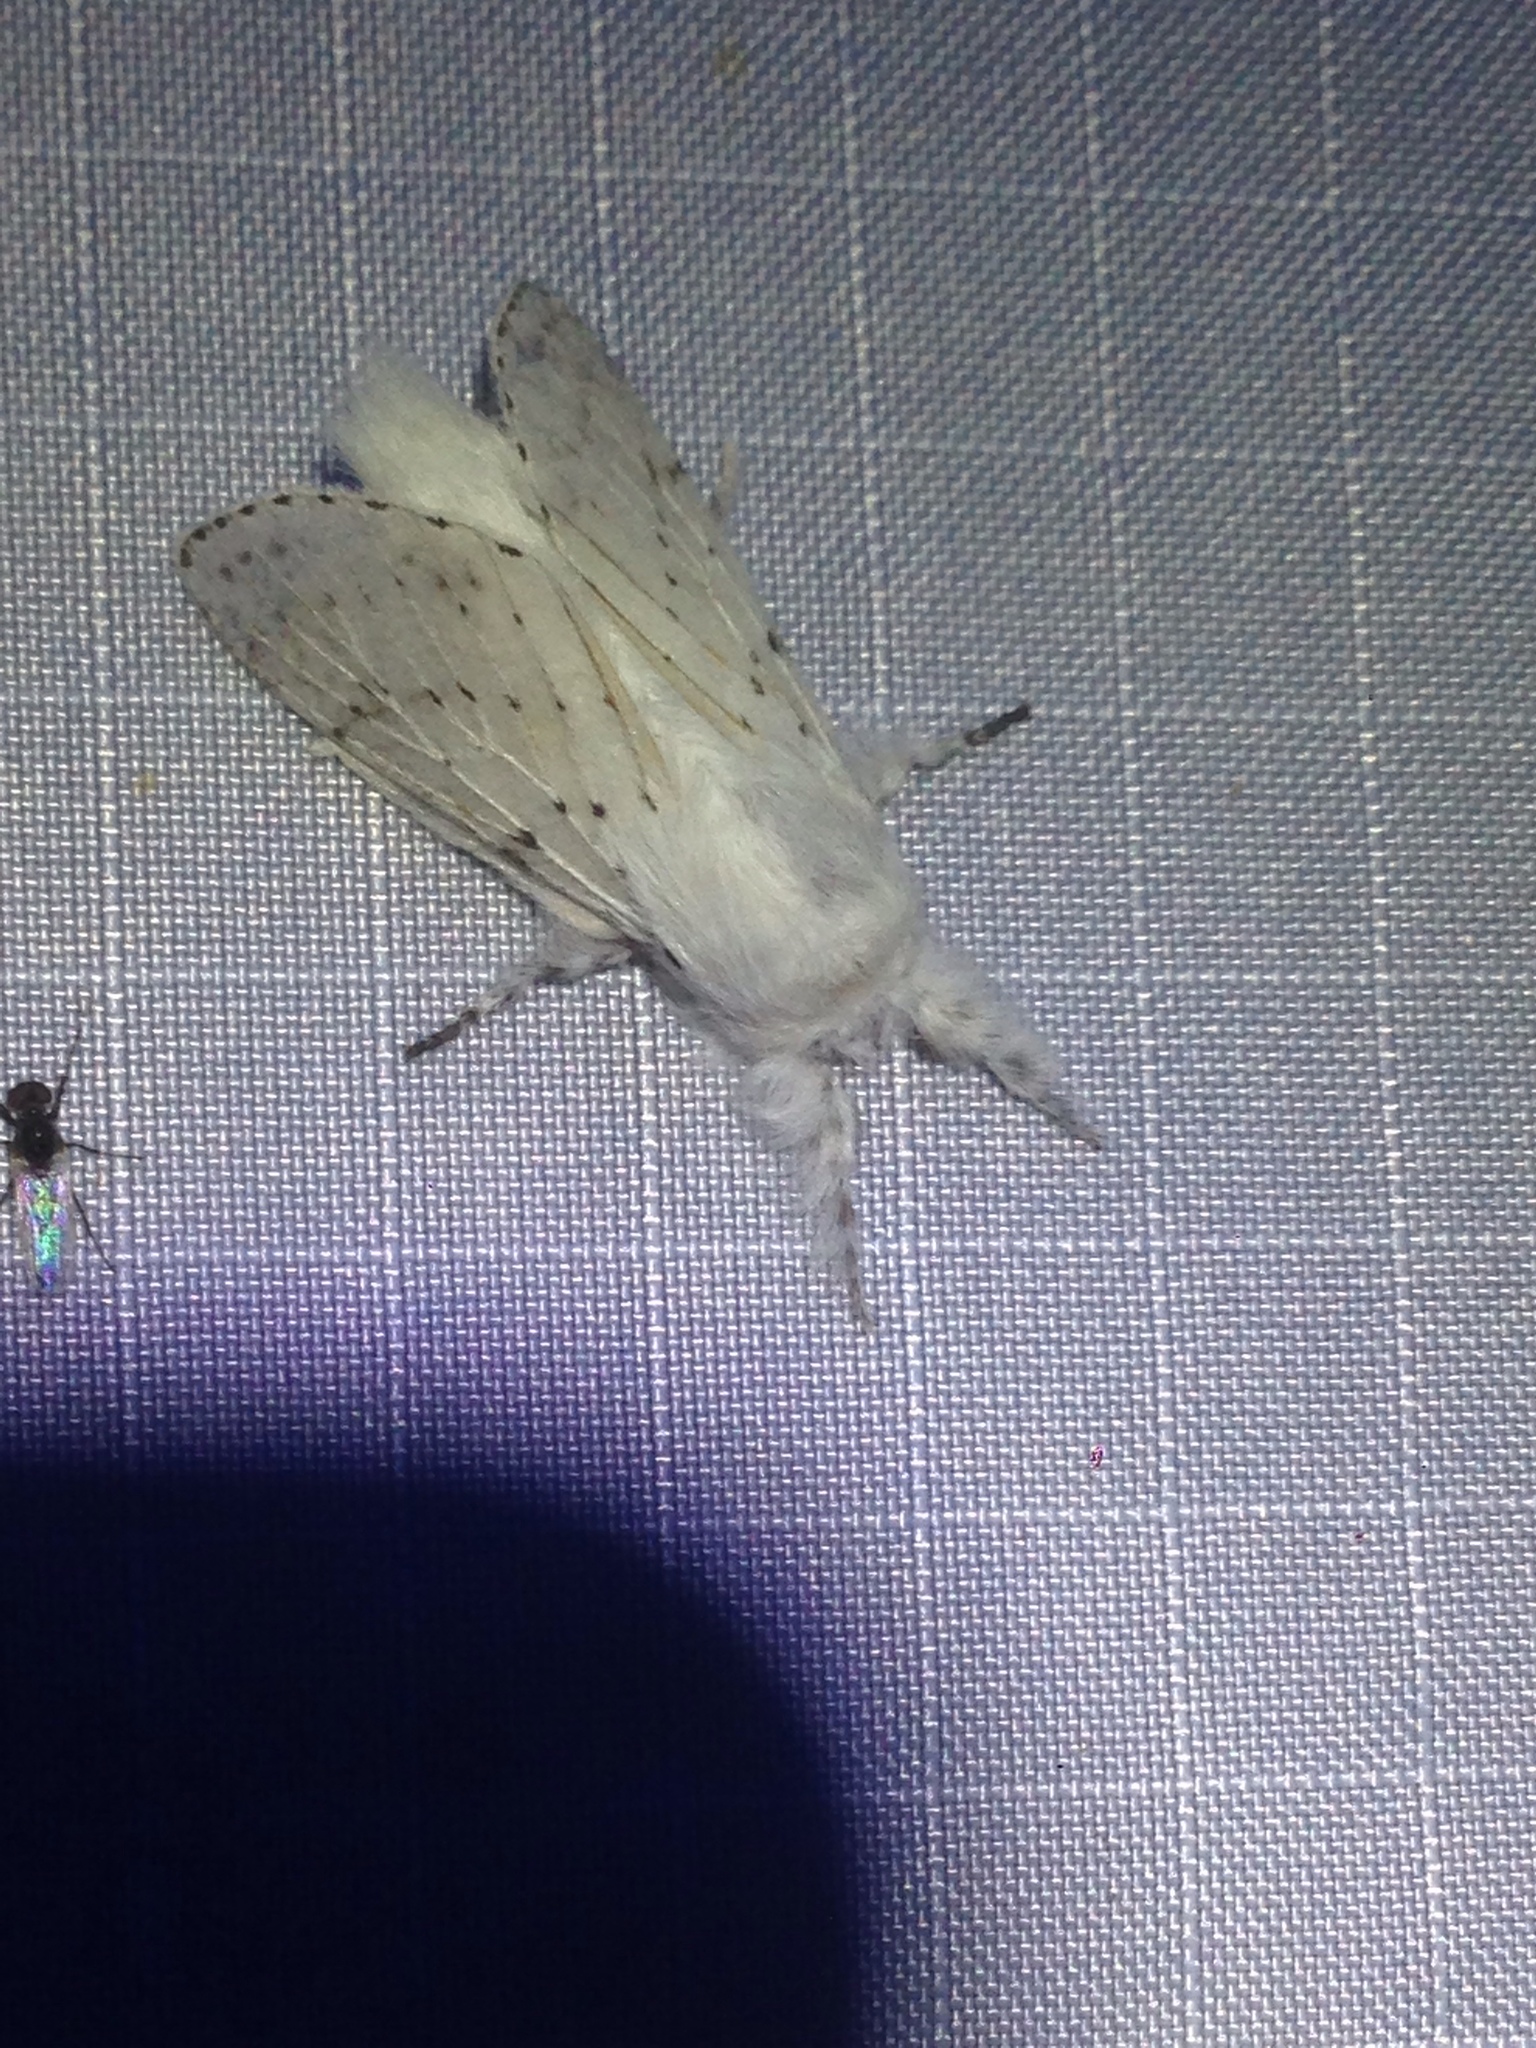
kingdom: Animalia
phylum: Arthropoda
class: Insecta
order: Lepidoptera
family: Lasiocampidae
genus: Artace
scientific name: Artace cribrarius
